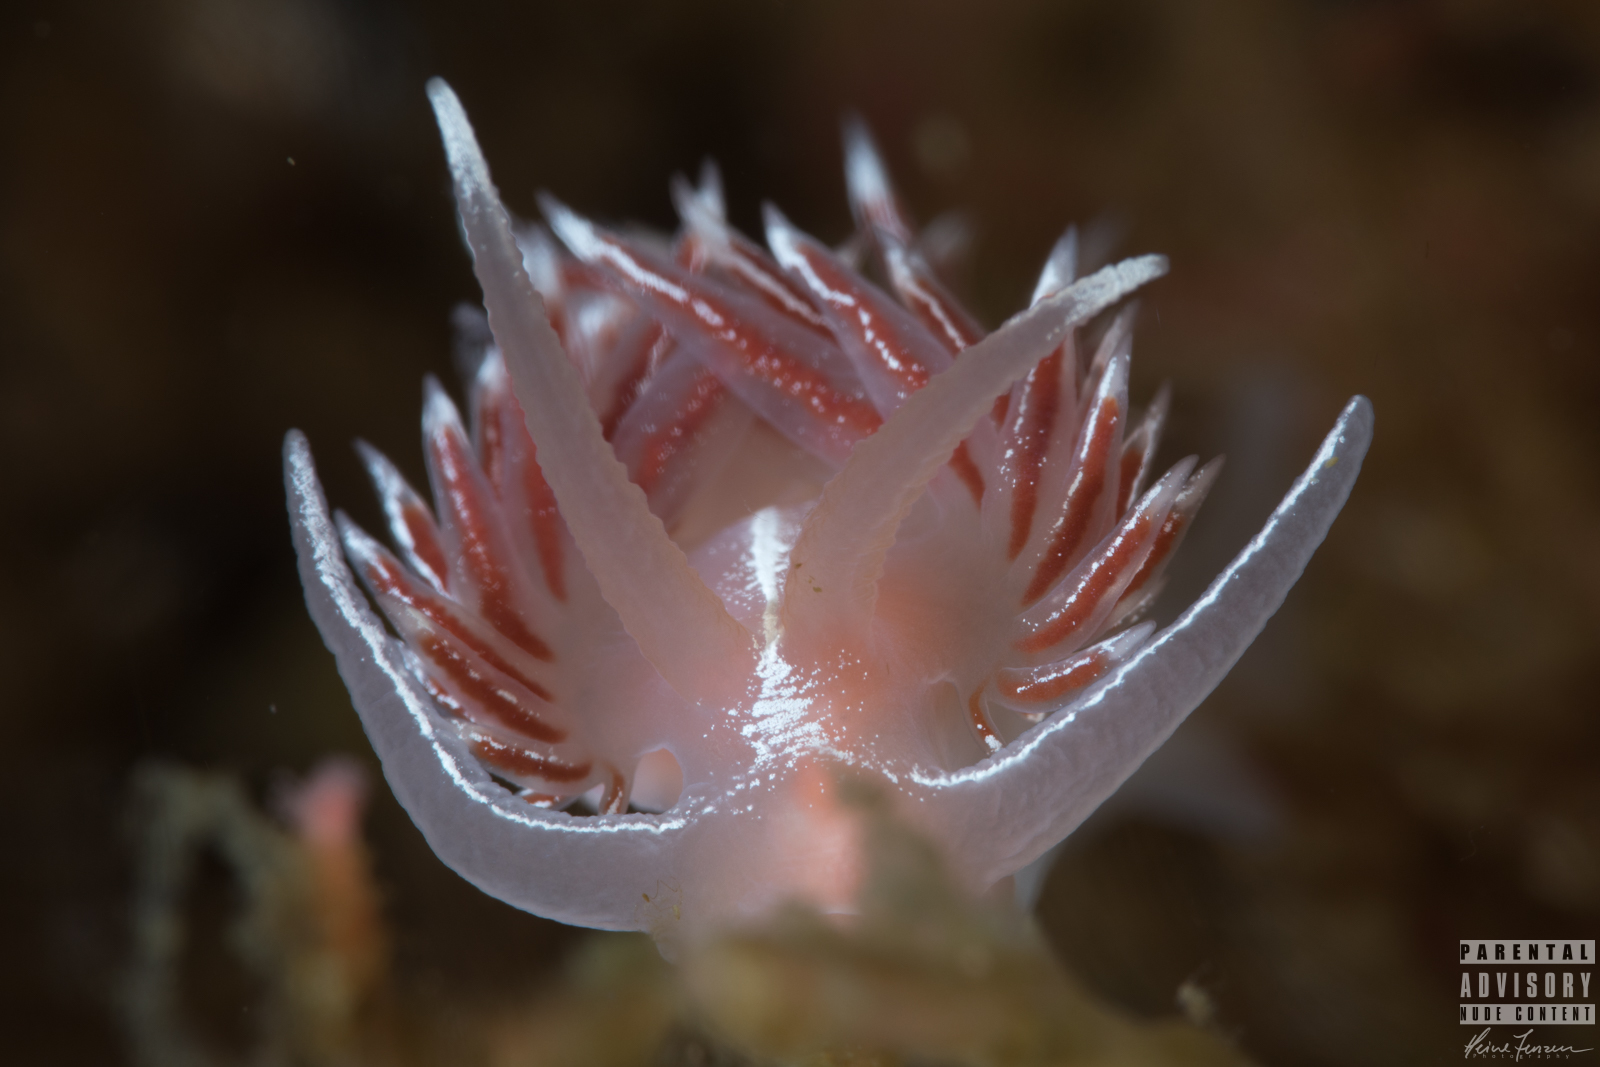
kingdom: Animalia
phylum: Mollusca
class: Gastropoda
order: Nudibranchia
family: Coryphellidae
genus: Coryphella
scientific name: Coryphella lineata
